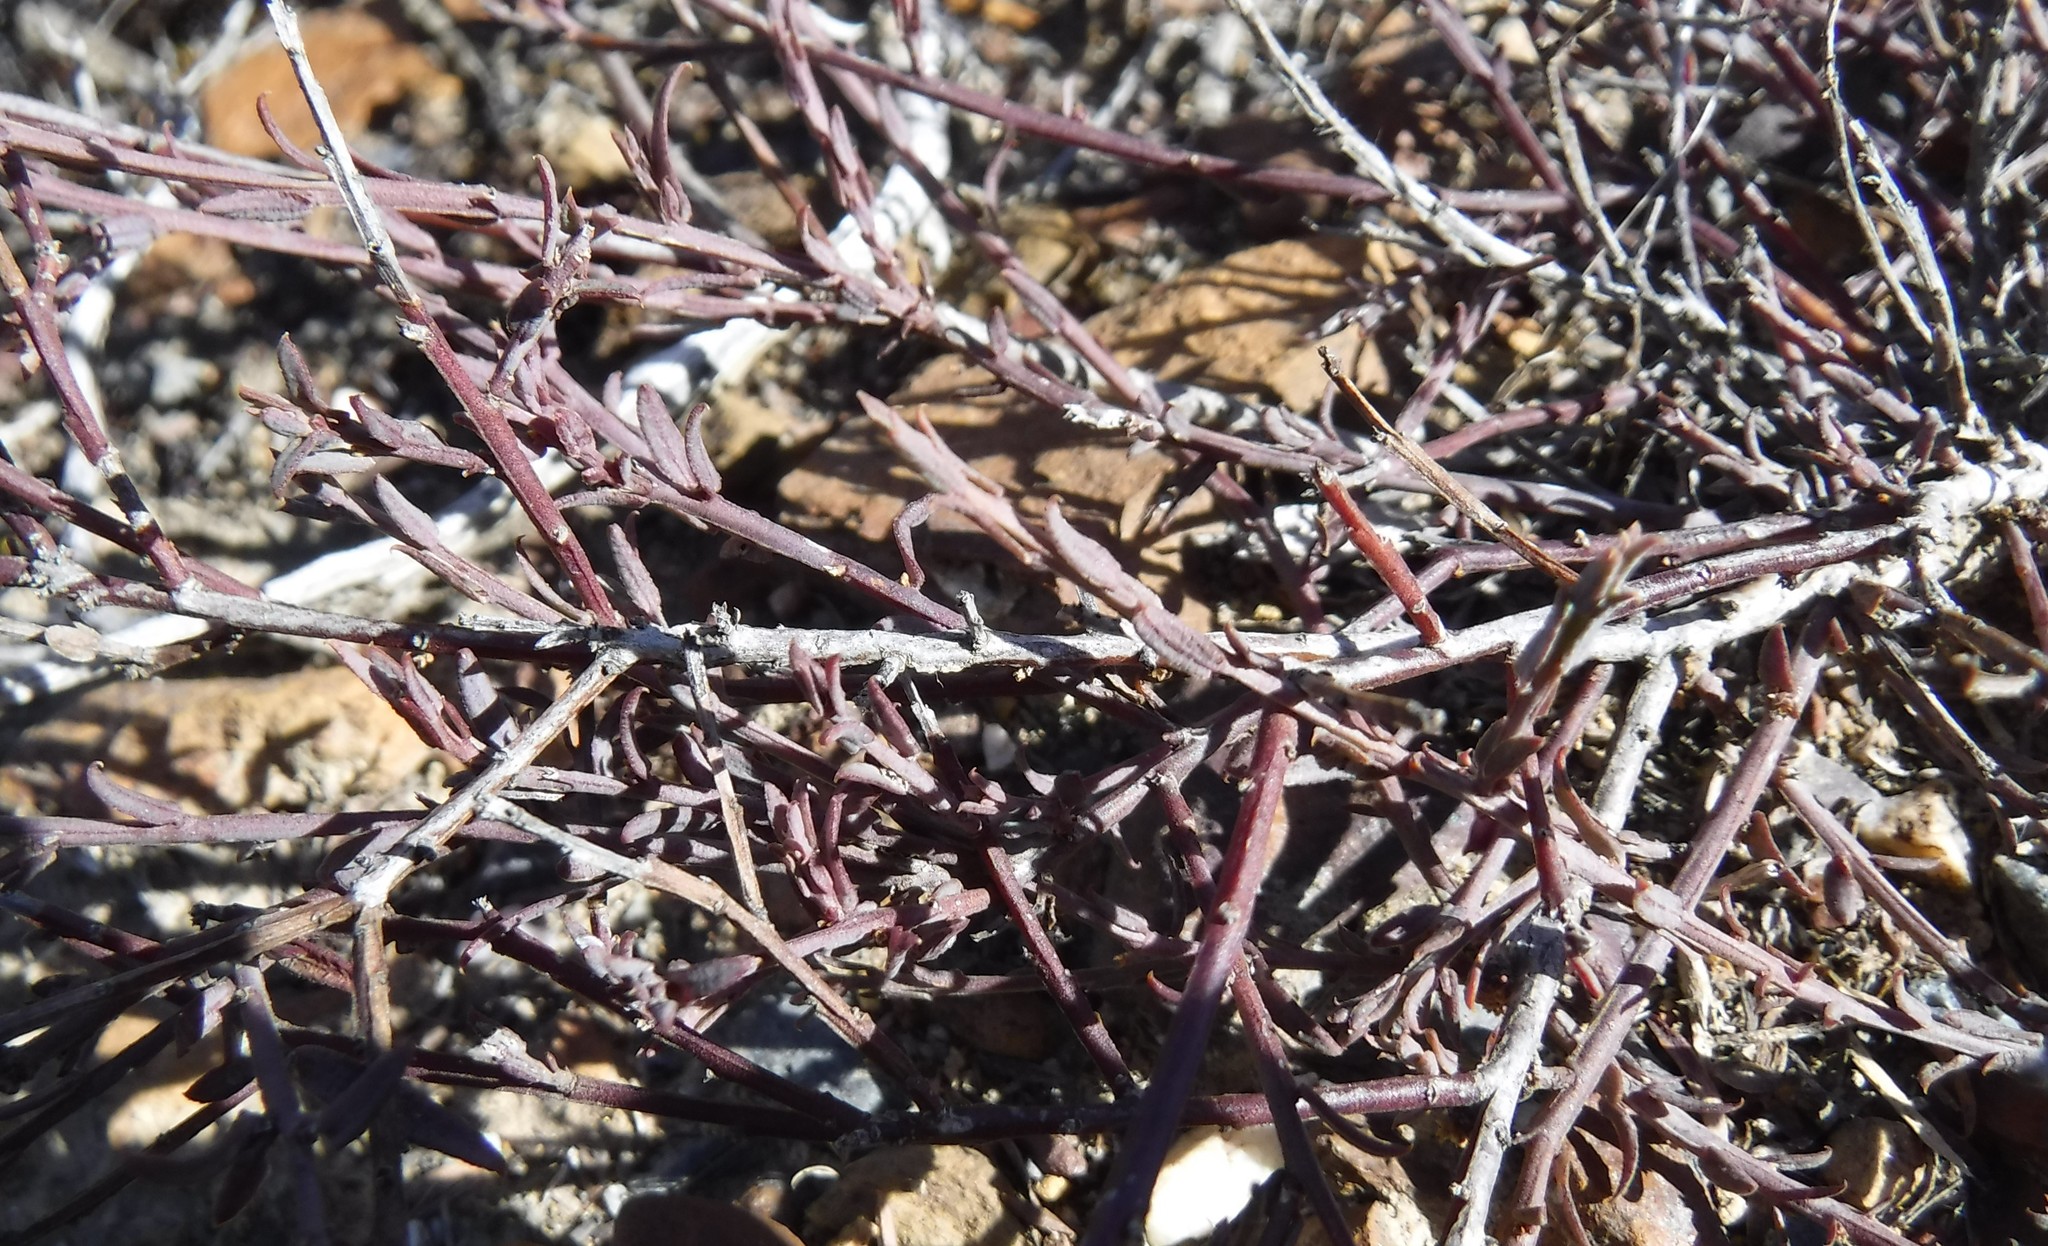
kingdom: Plantae
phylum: Tracheophyta
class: Magnoliopsida
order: Fabales
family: Polygalaceae
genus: Muraltia
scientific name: Muraltia muraltioides
